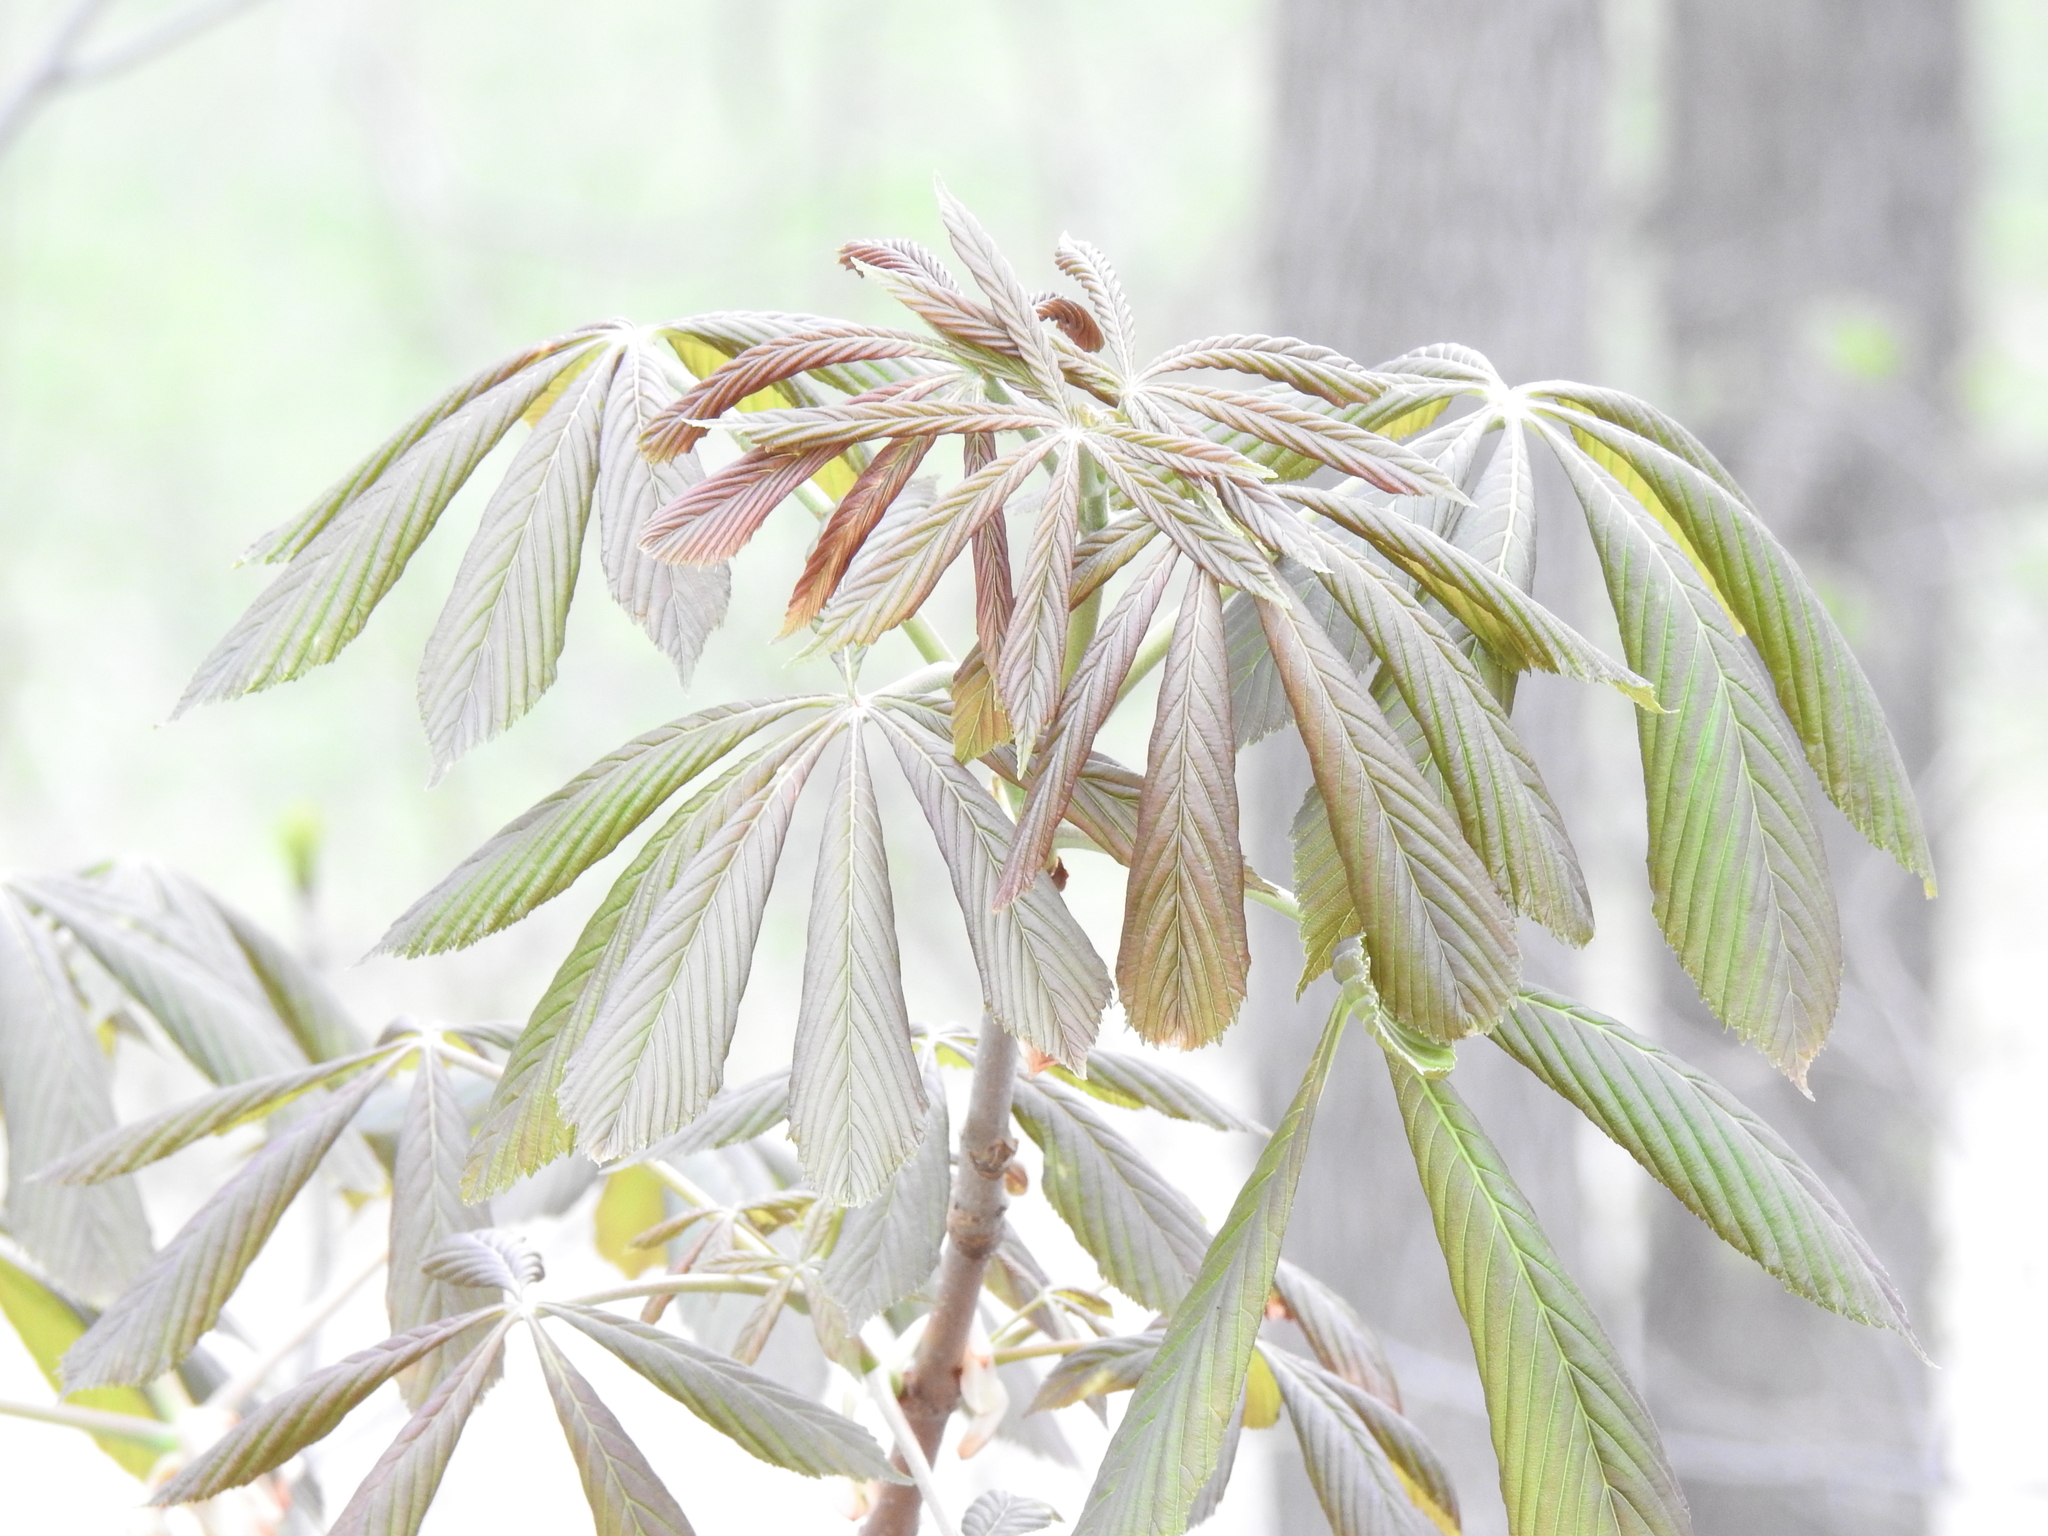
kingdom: Plantae
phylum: Tracheophyta
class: Magnoliopsida
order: Sapindales
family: Sapindaceae
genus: Aesculus
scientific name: Aesculus glabra
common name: Ohio buckeye
